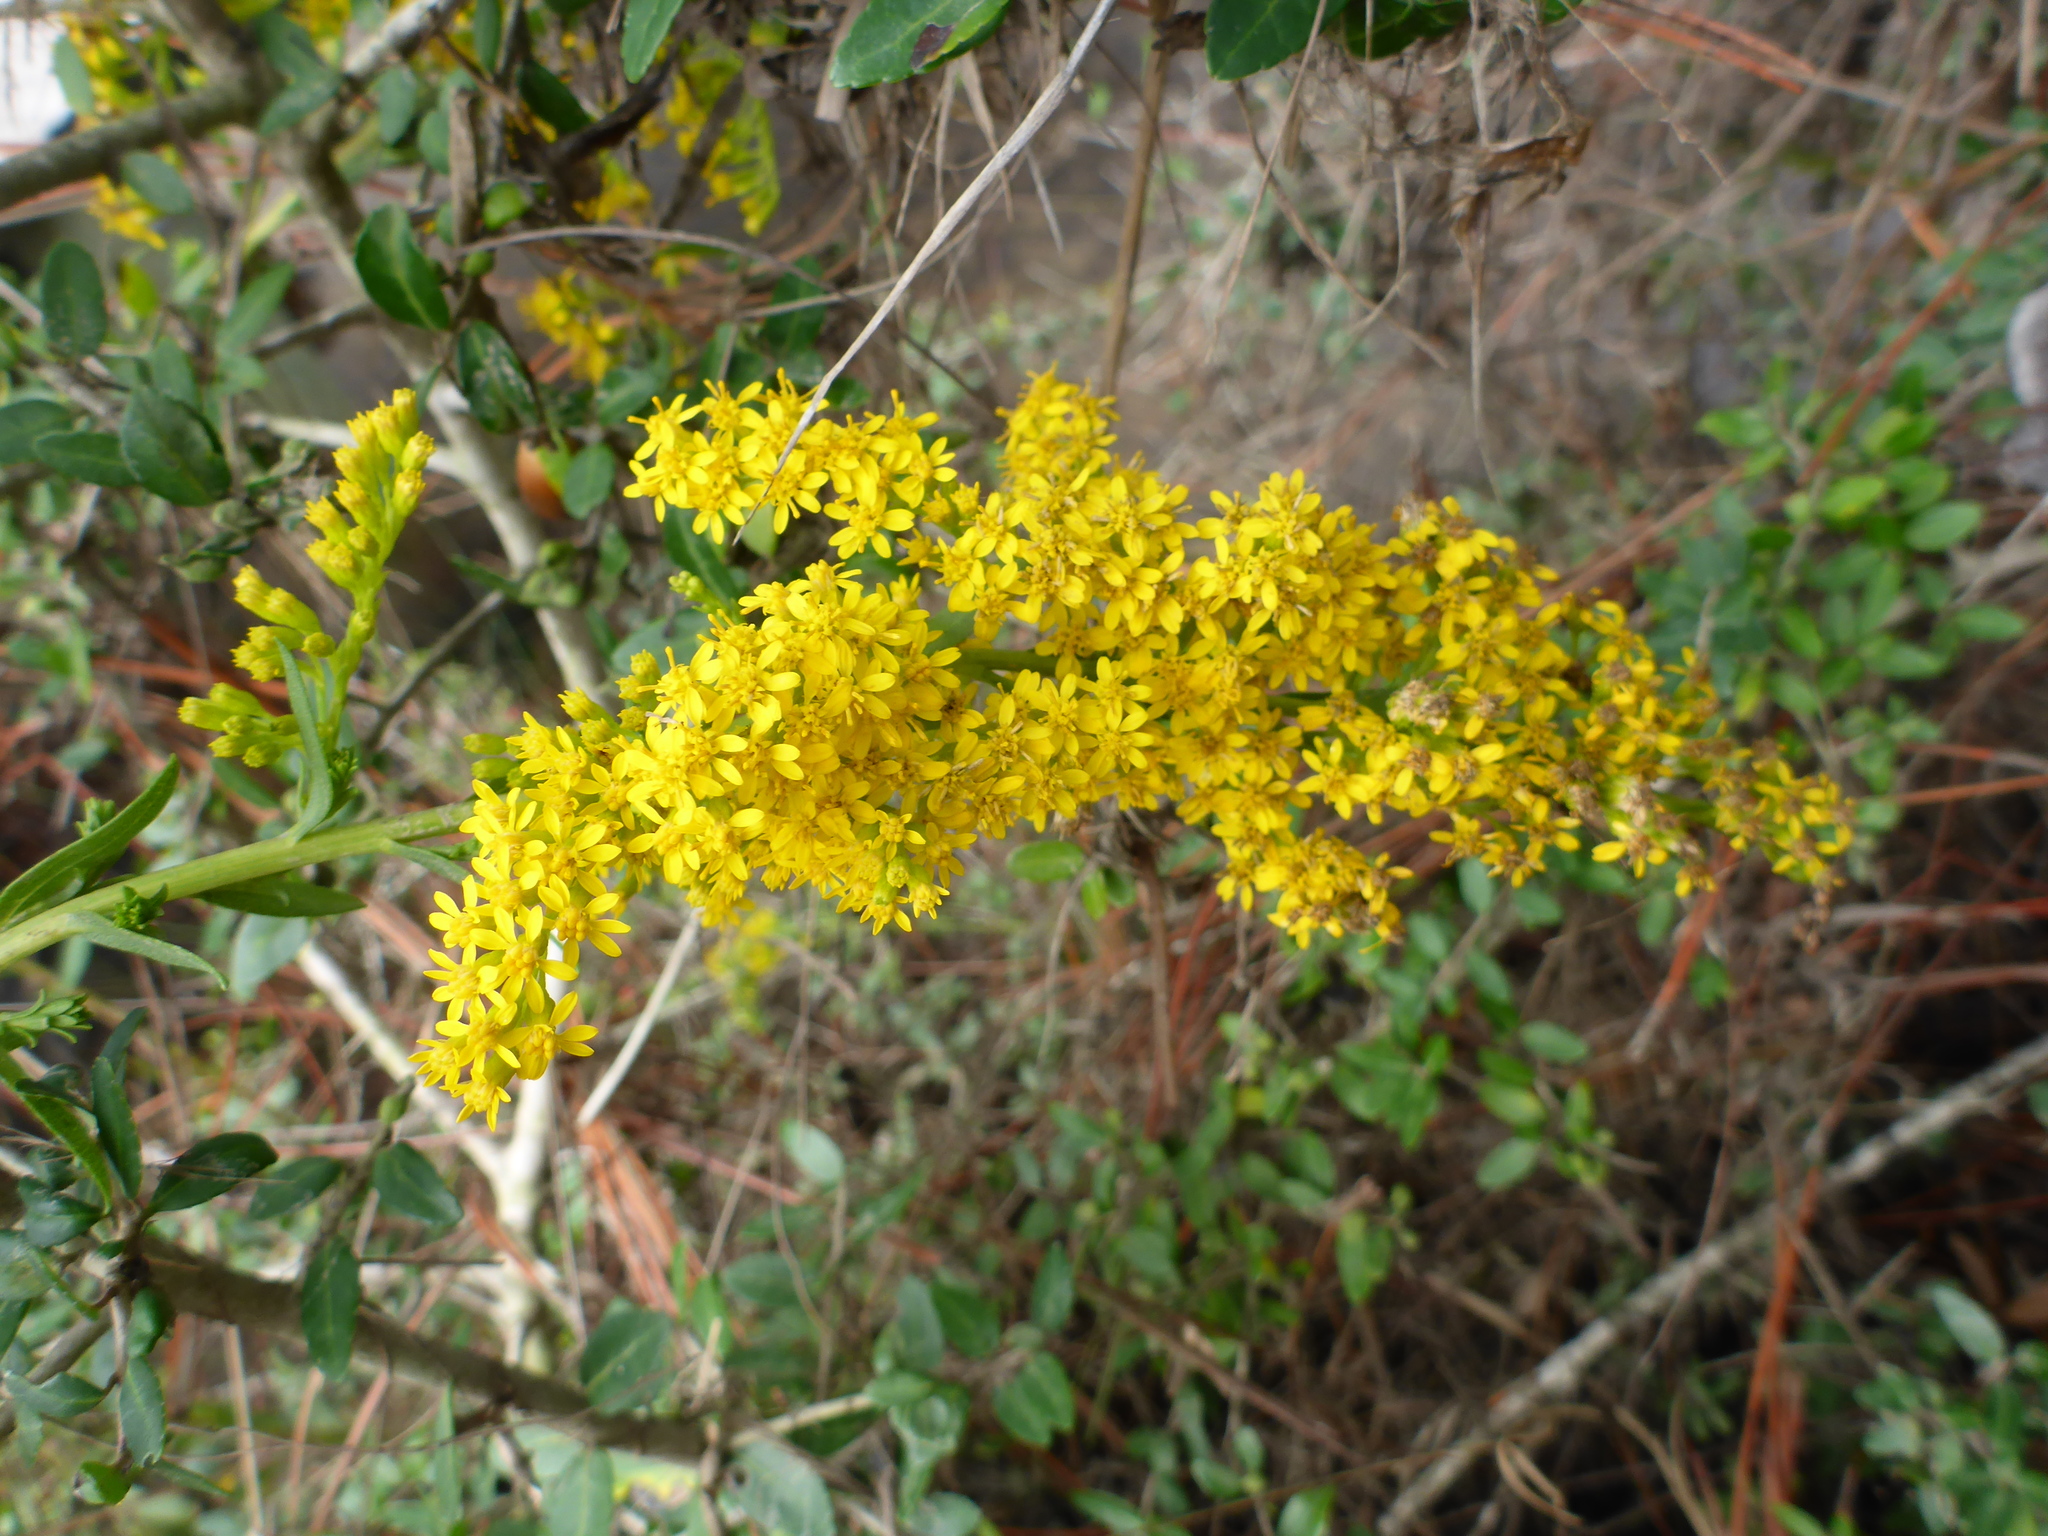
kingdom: Plantae
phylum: Tracheophyta
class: Magnoliopsida
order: Asterales
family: Asteraceae
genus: Solidago
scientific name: Solidago mexicana
